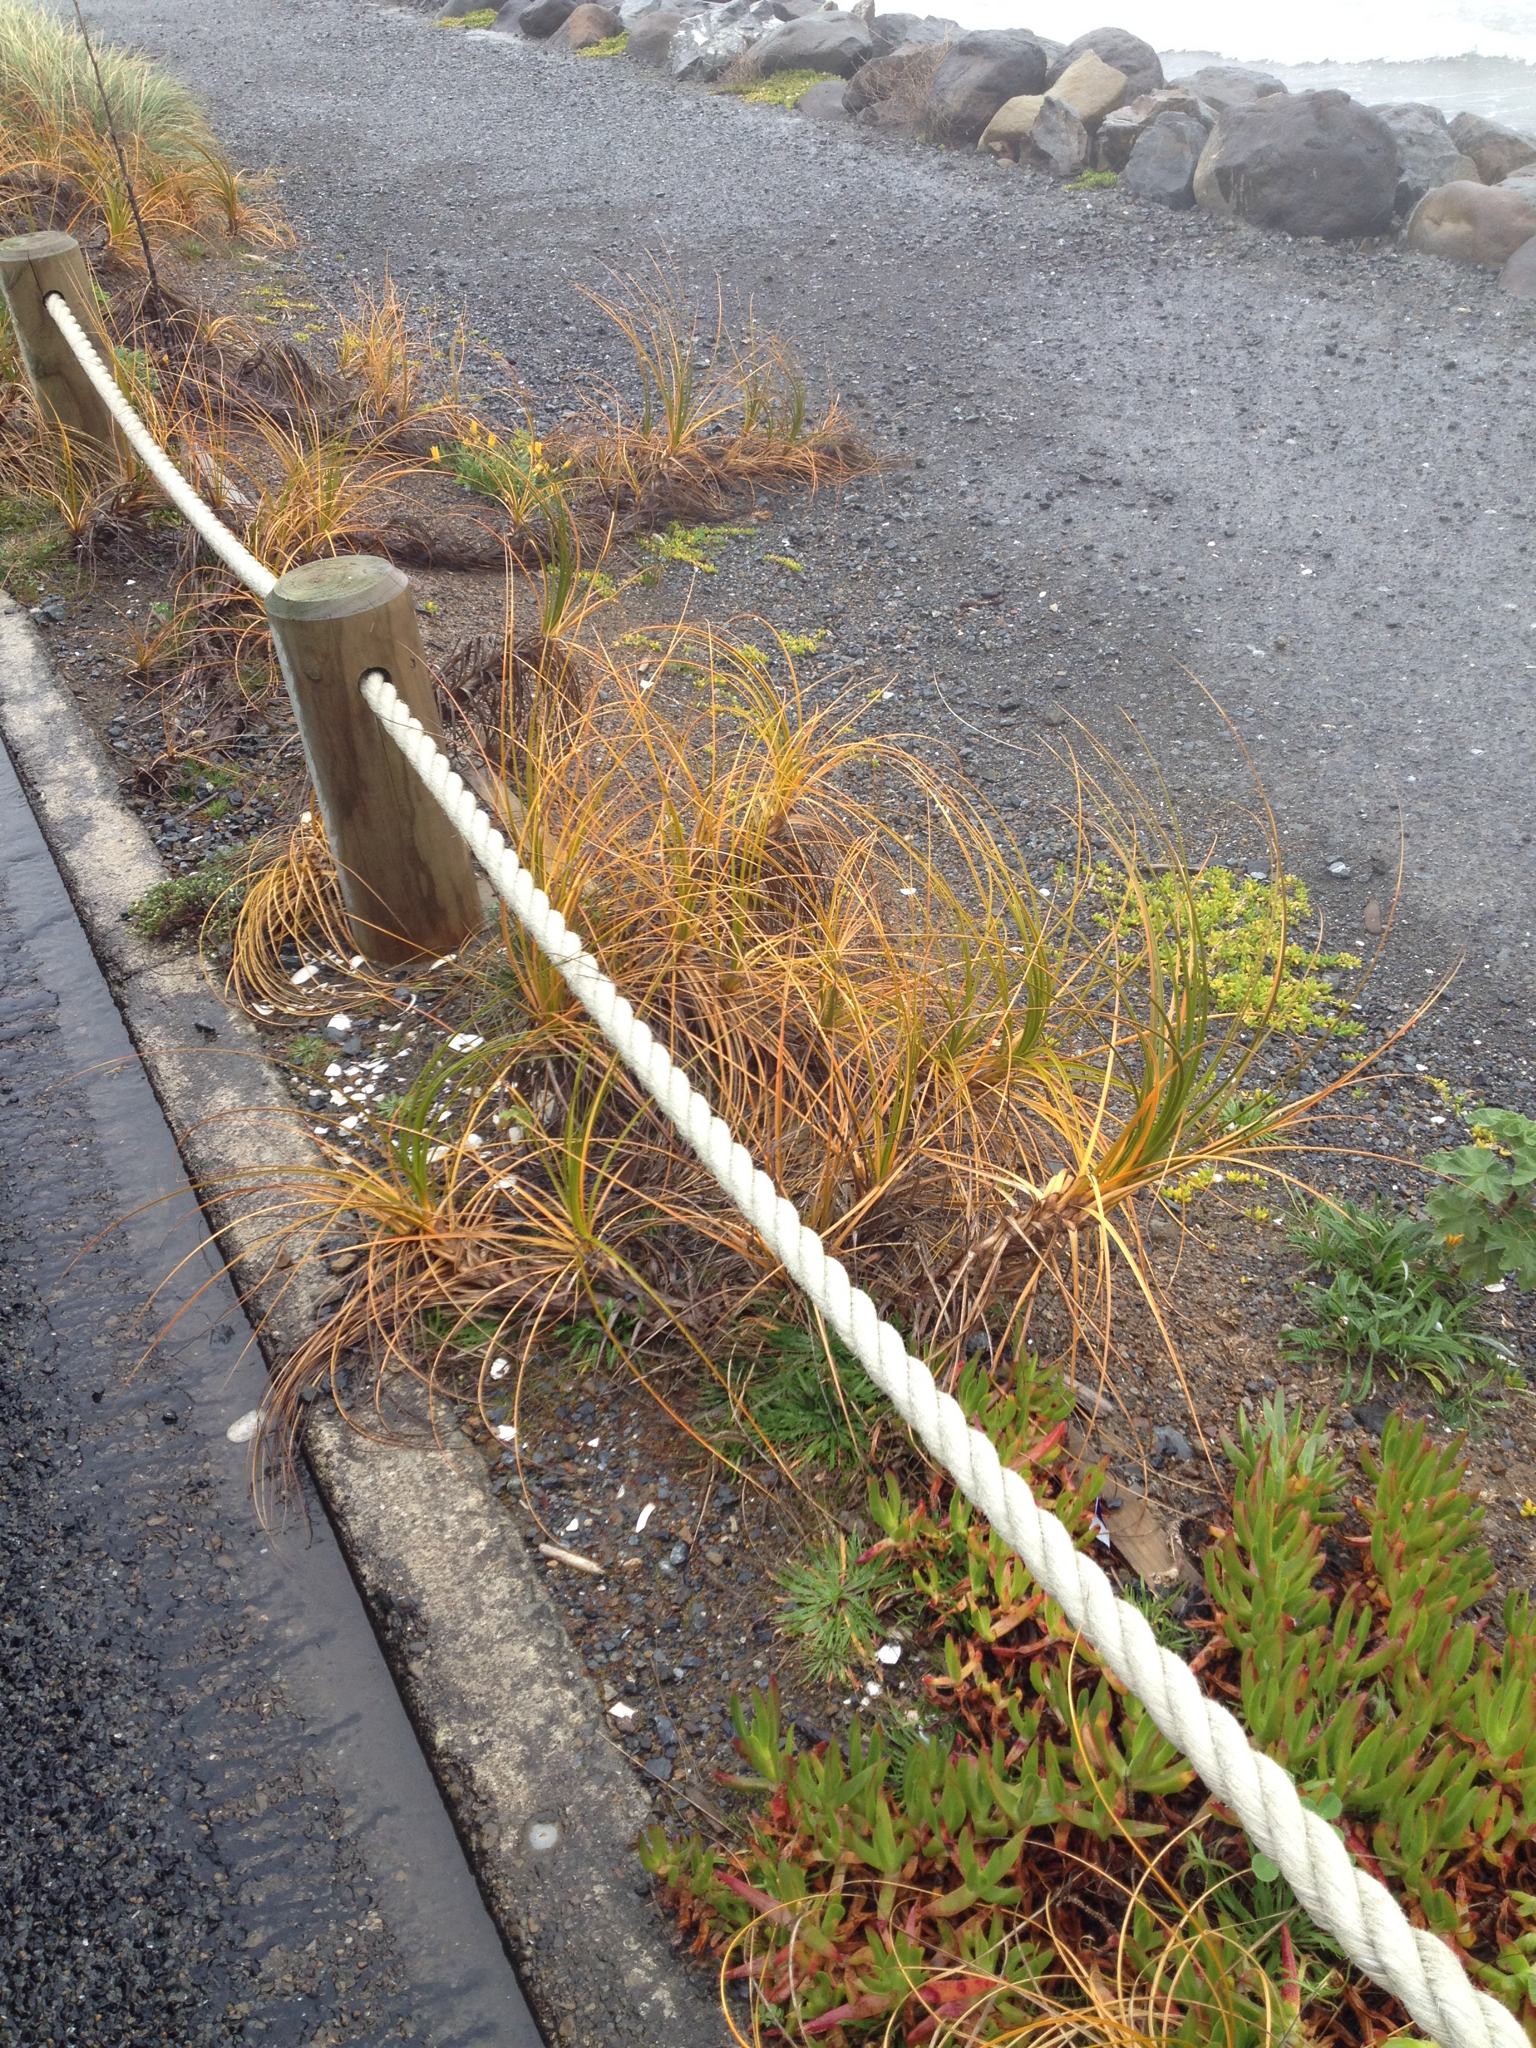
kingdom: Plantae
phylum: Tracheophyta
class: Liliopsida
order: Poales
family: Cyperaceae
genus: Ficinia
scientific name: Ficinia spiralis
